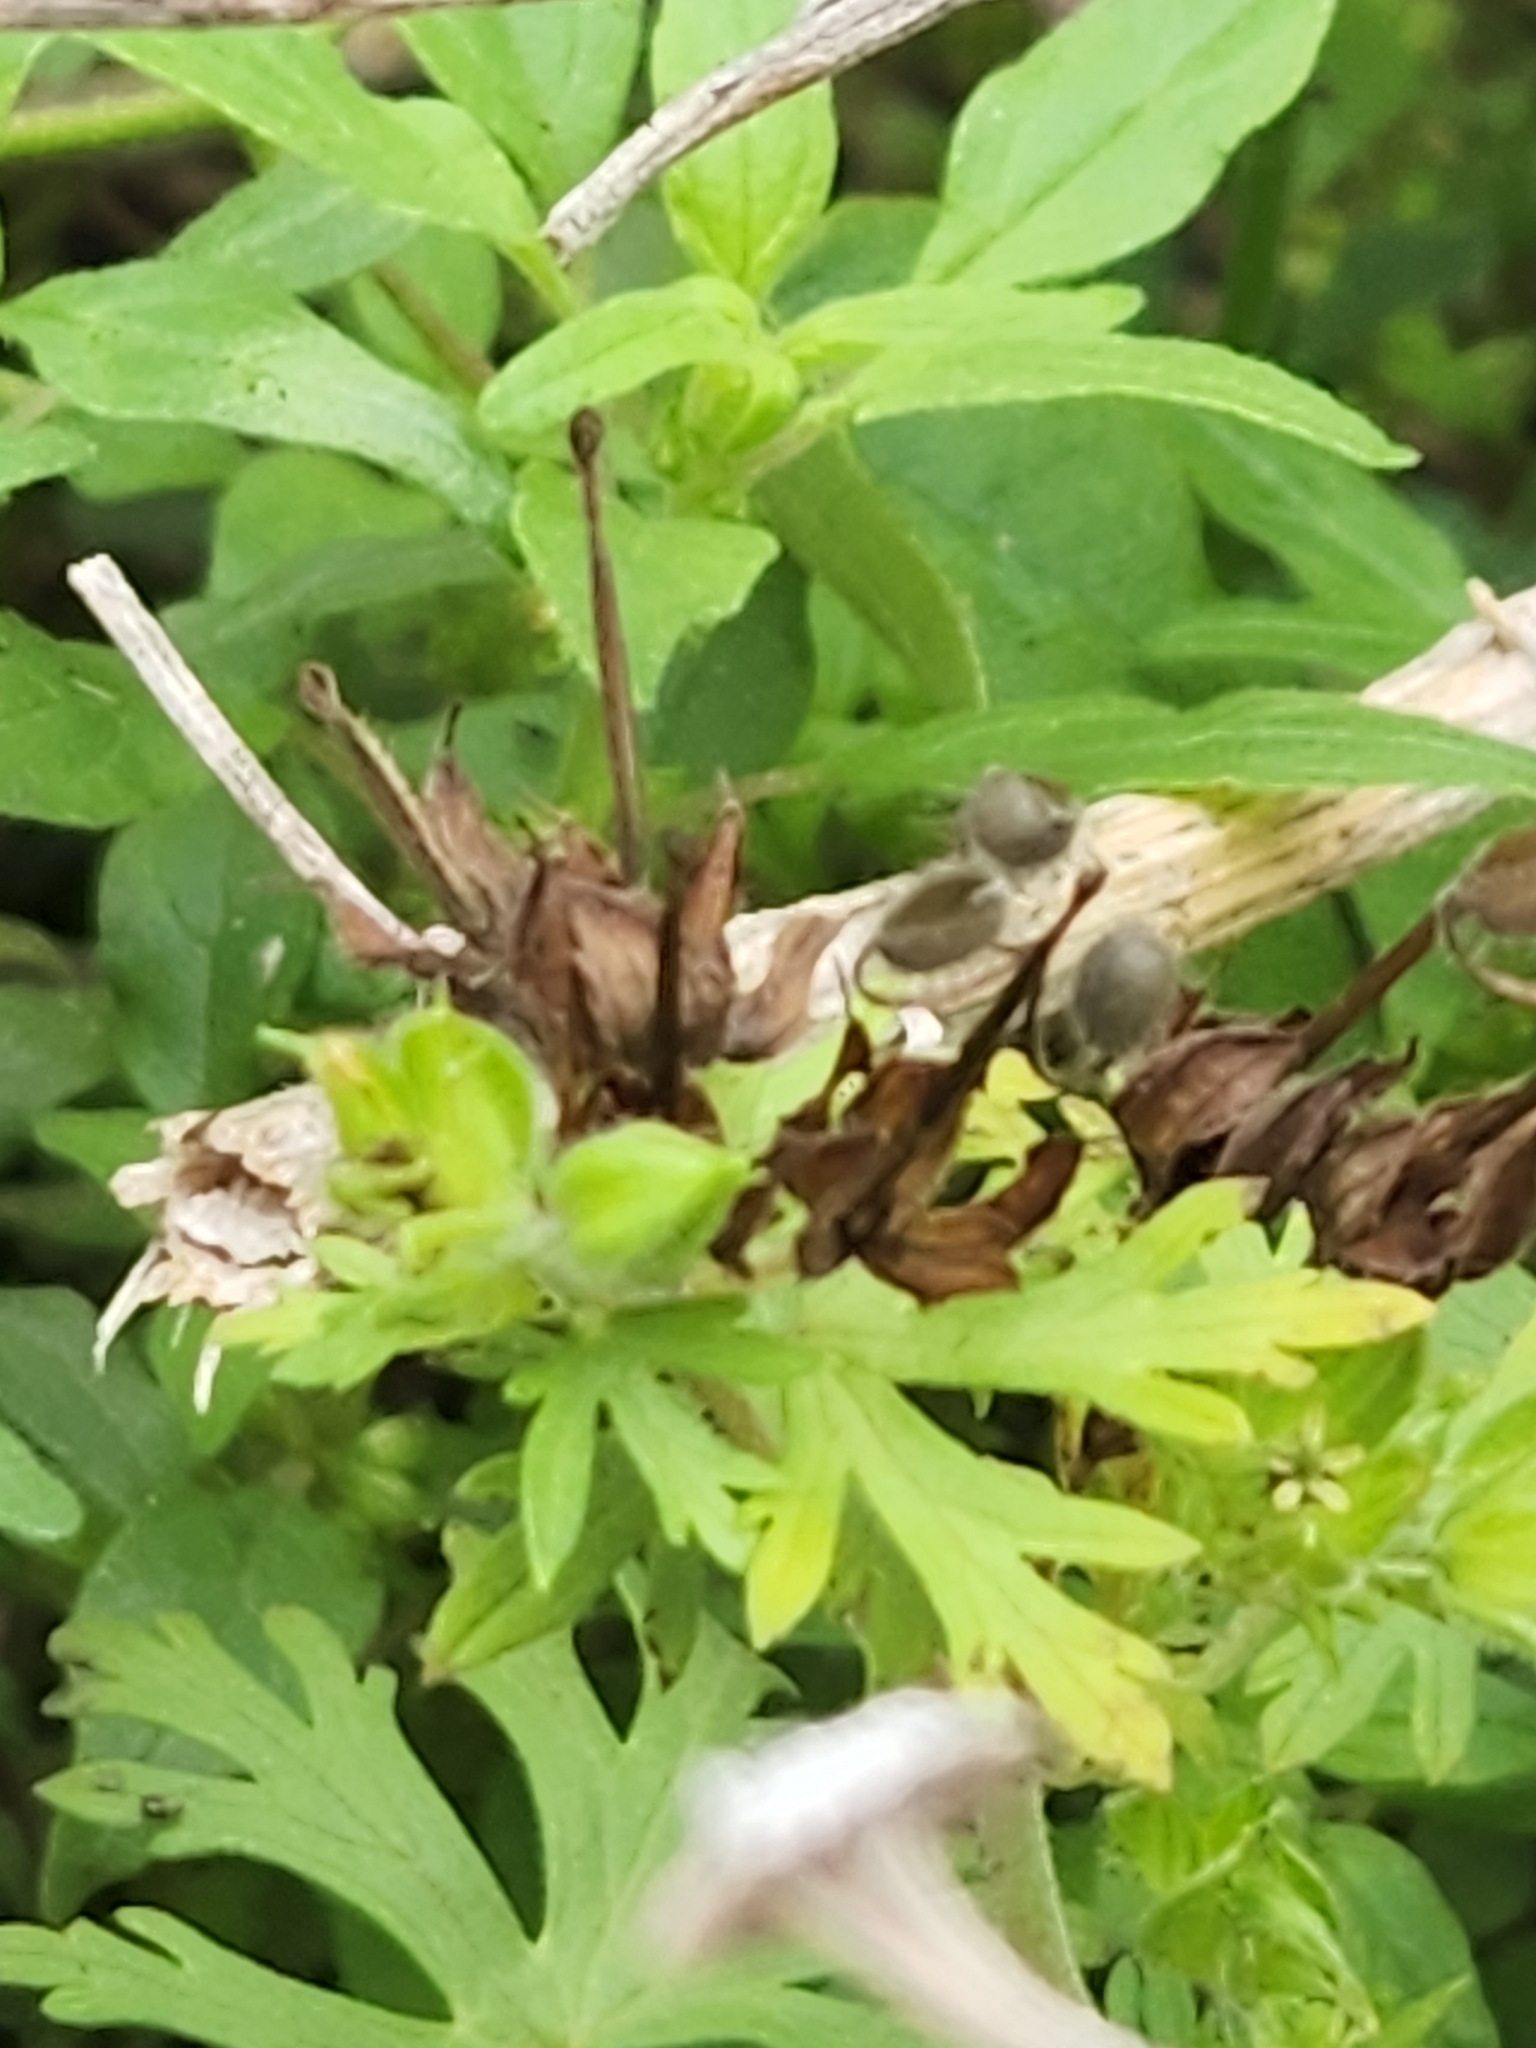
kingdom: Plantae
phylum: Tracheophyta
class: Magnoliopsida
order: Geraniales
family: Geraniaceae
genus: Geranium
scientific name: Geranium carolinianum
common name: Carolina crane's-bill
